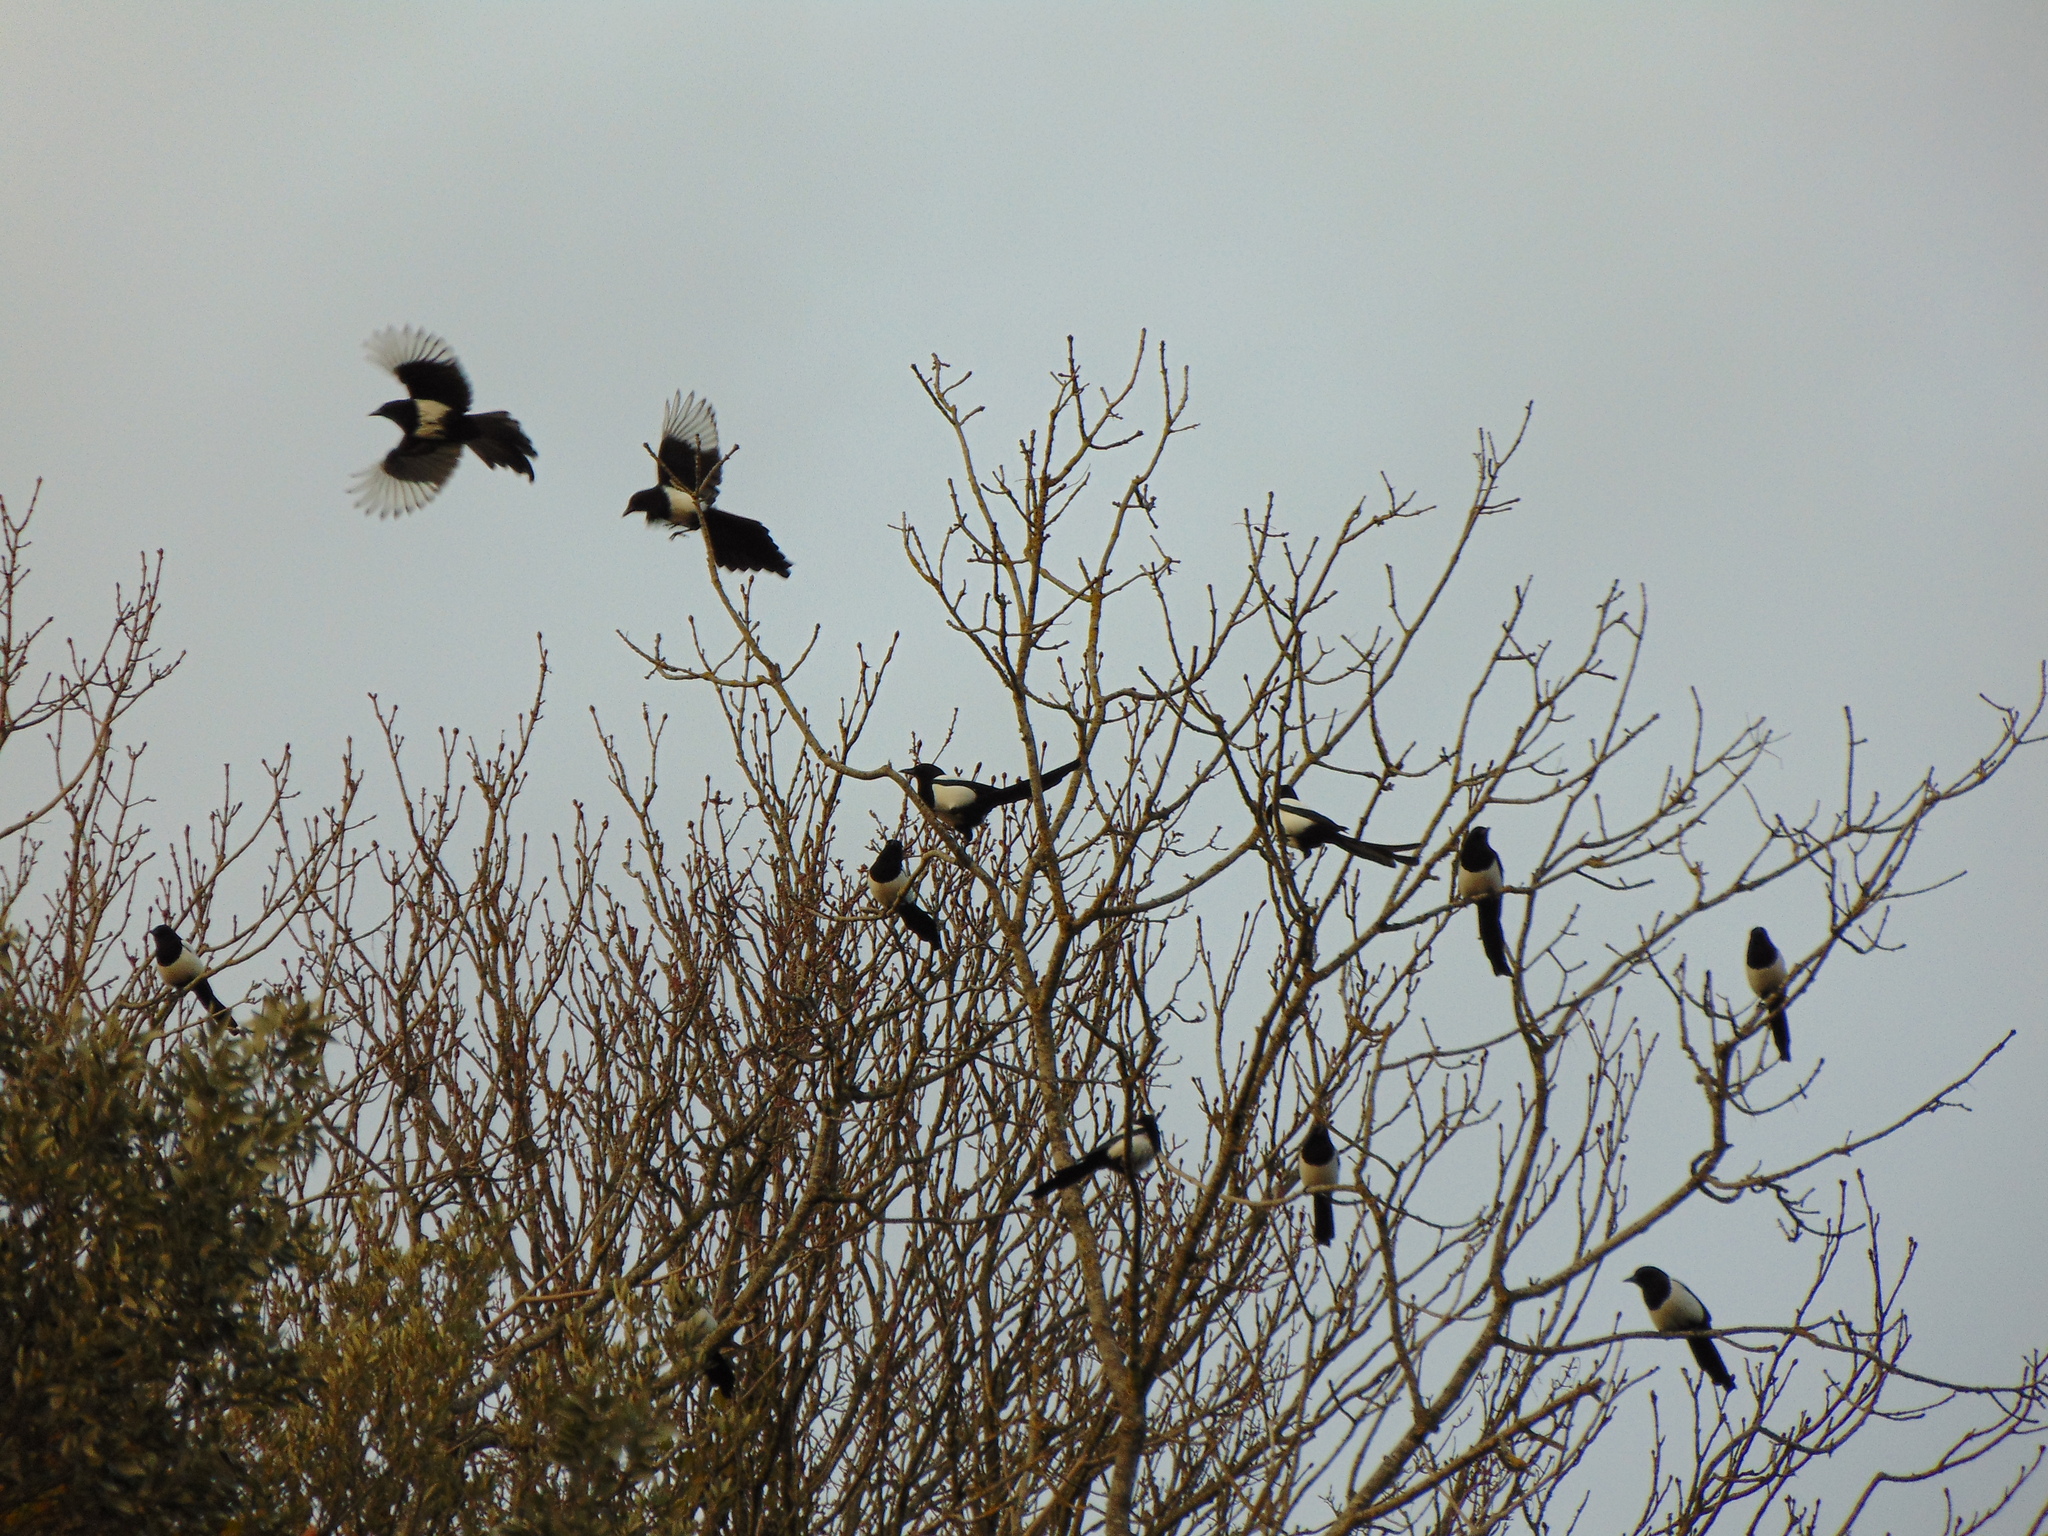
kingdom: Animalia
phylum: Chordata
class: Aves
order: Passeriformes
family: Corvidae
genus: Pica
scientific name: Pica pica
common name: Eurasian magpie
